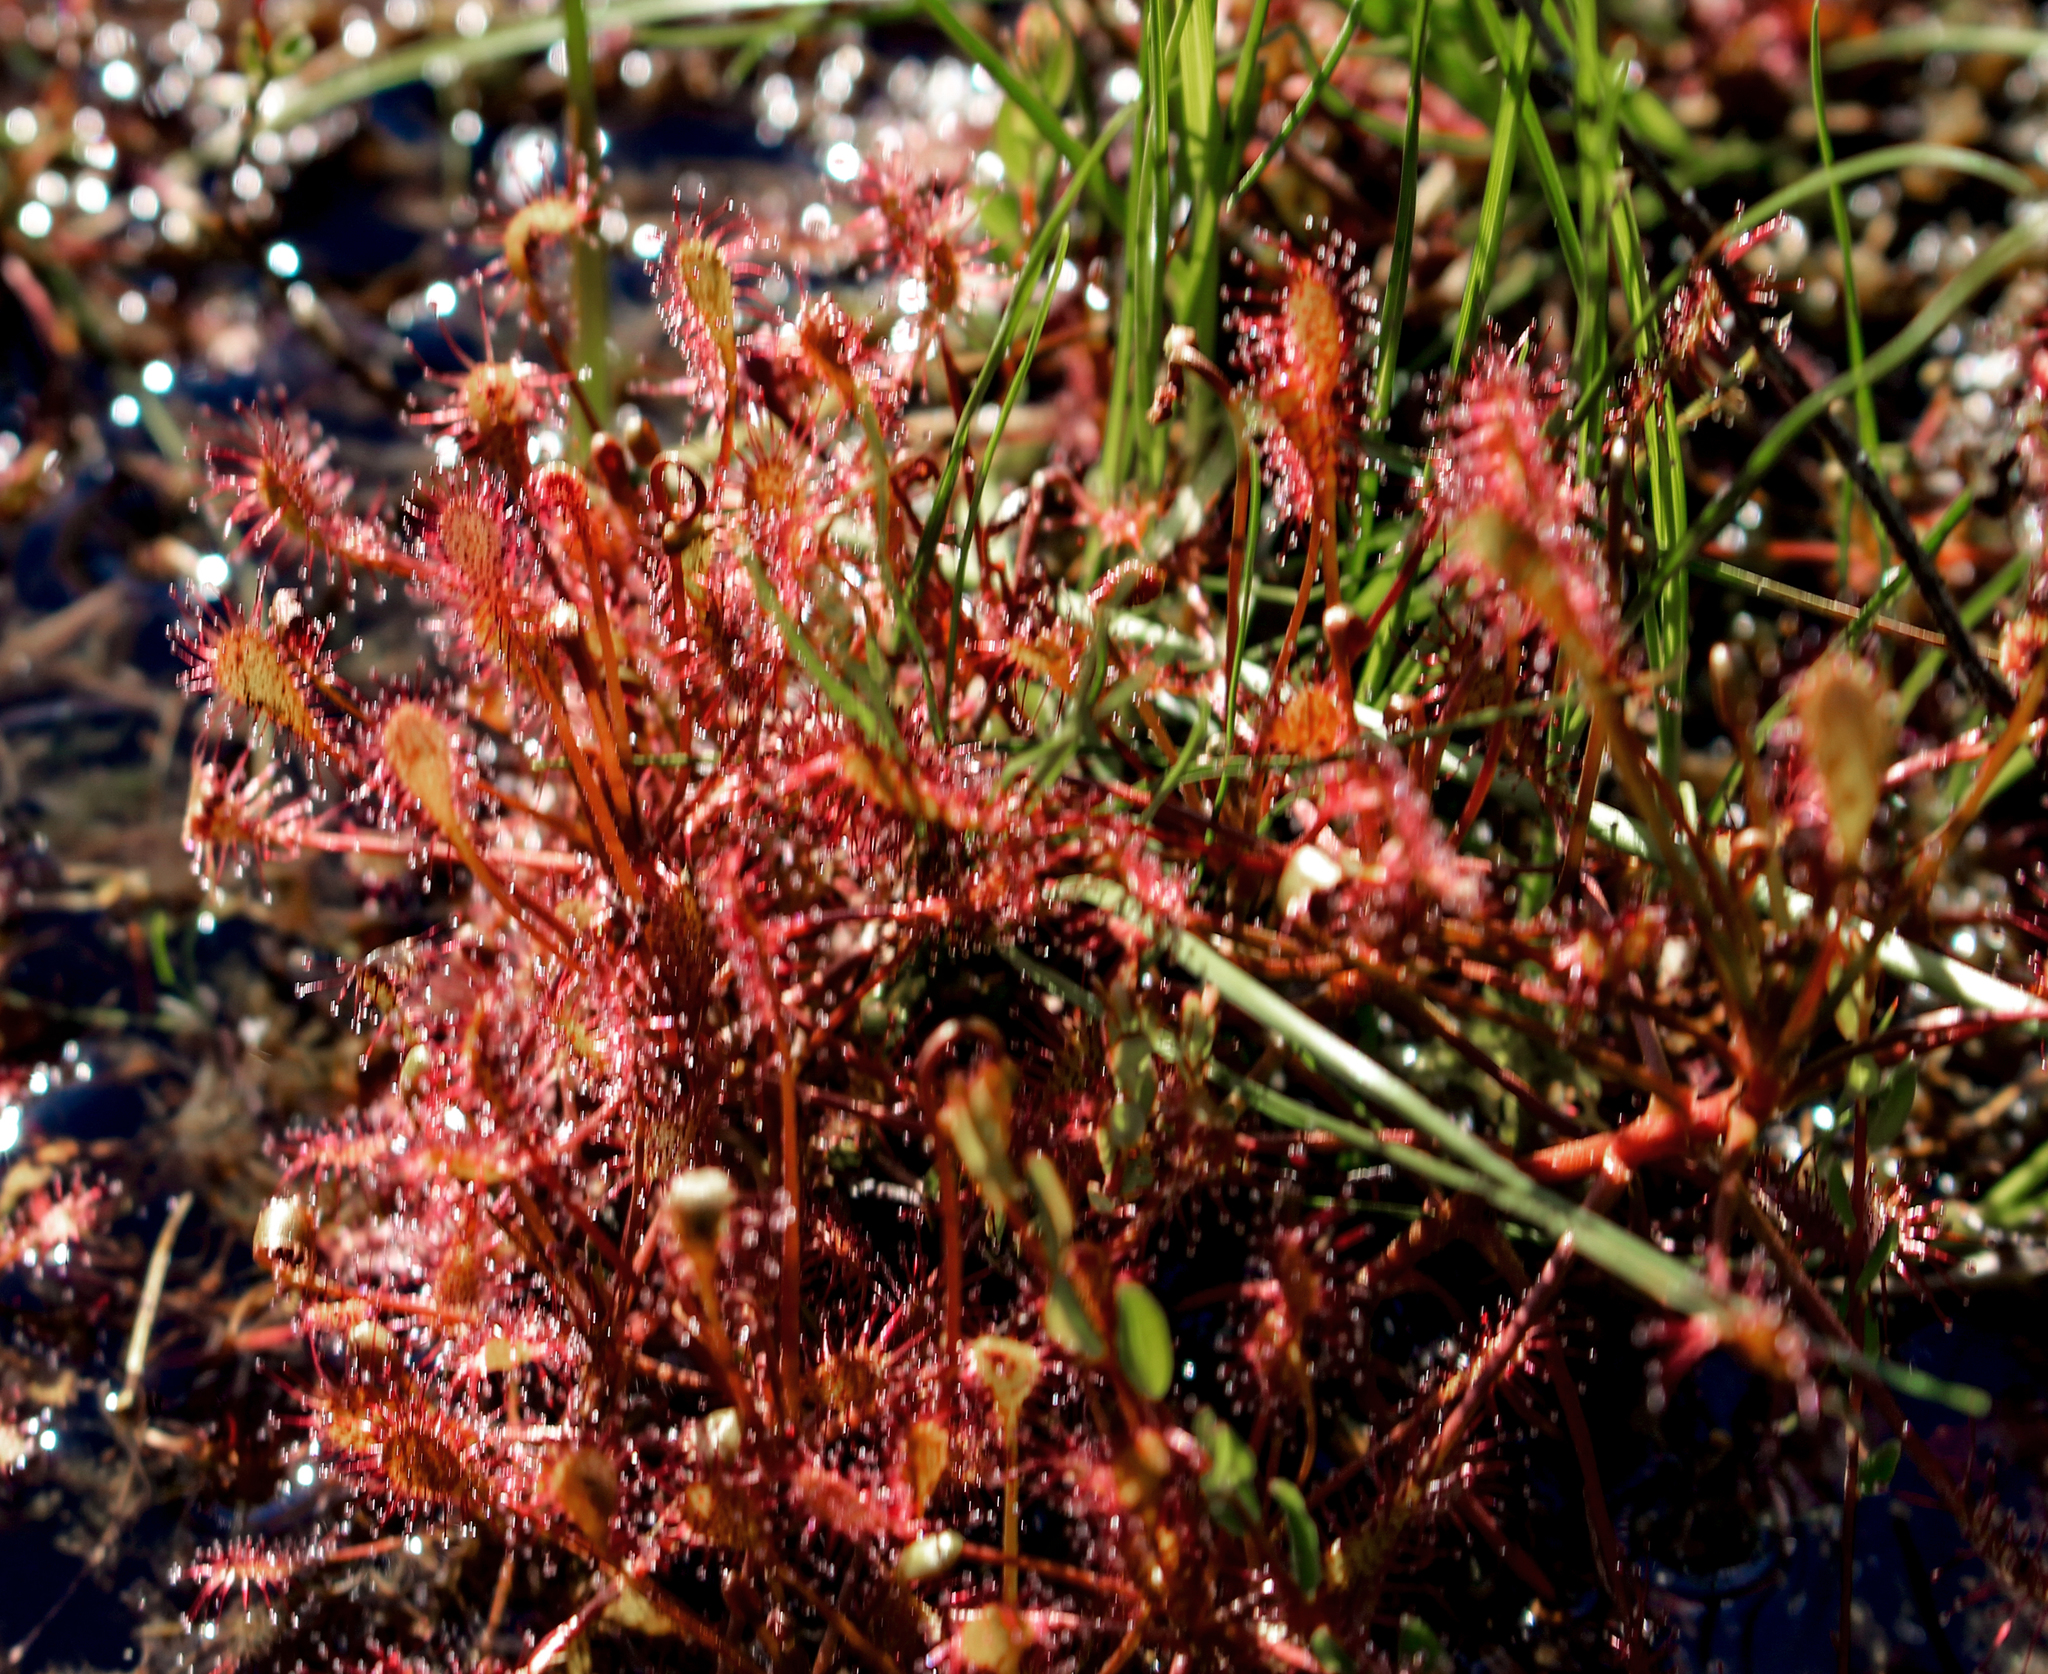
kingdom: Plantae
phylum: Tracheophyta
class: Magnoliopsida
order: Caryophyllales
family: Droseraceae
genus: Drosera
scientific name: Drosera intermedia
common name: Oblong-leaved sundew
